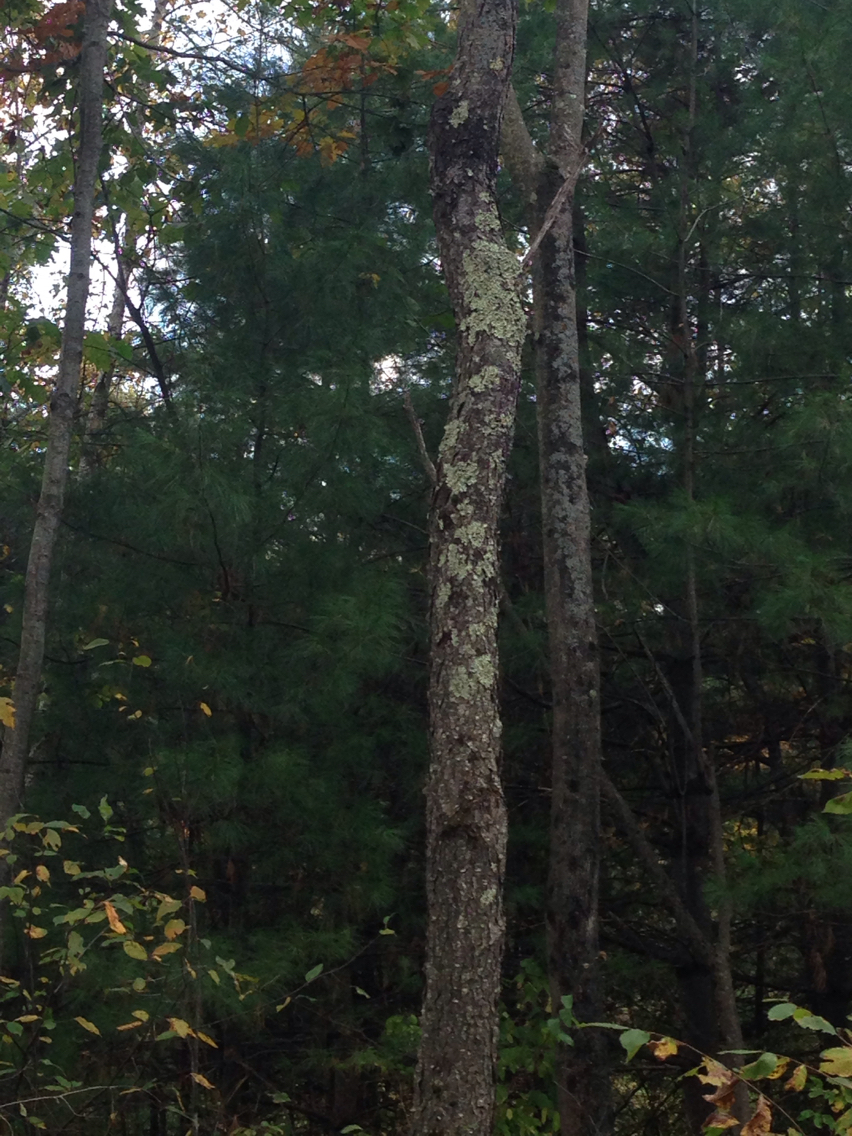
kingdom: Plantae
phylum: Tracheophyta
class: Magnoliopsida
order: Rosales
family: Rosaceae
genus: Prunus
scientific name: Prunus serotina
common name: Black cherry
